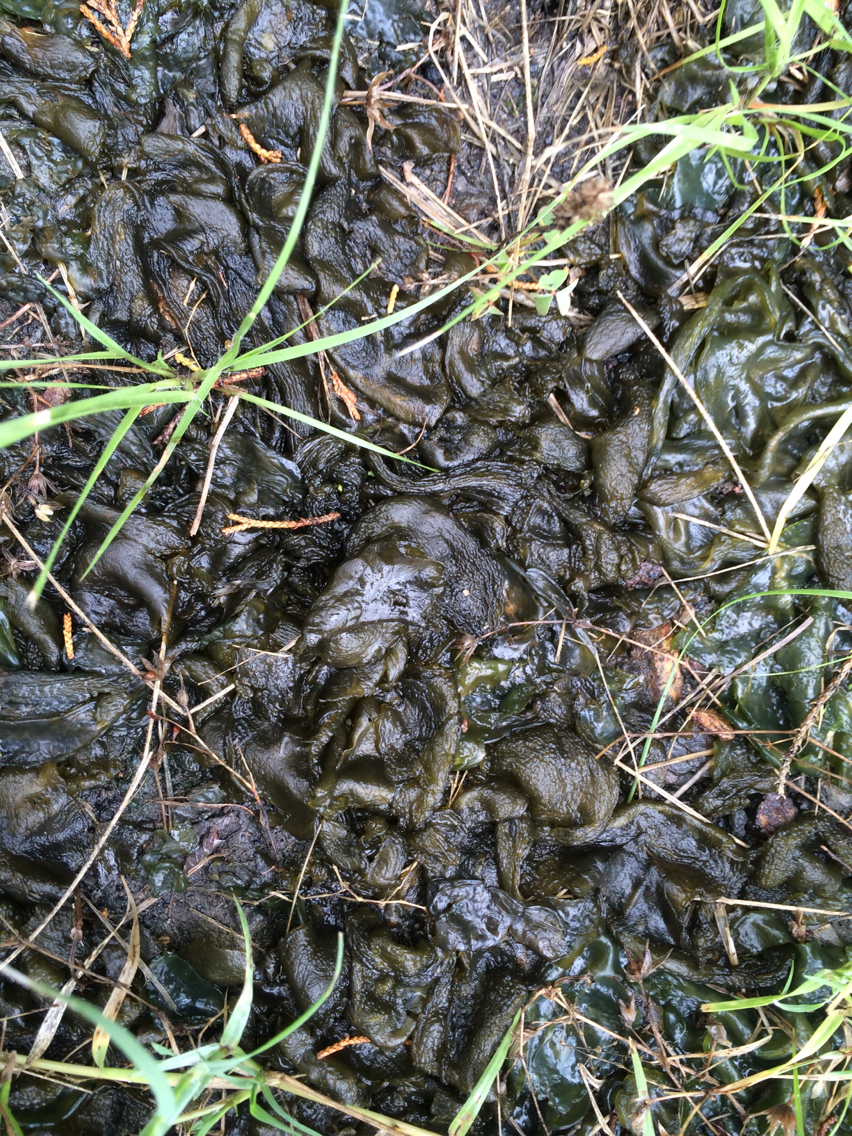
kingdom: Bacteria
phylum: Cyanobacteria
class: Cyanobacteriia
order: Cyanobacteriales
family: Nostocaceae
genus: Nostoc
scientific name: Nostoc commune
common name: Star jelly
